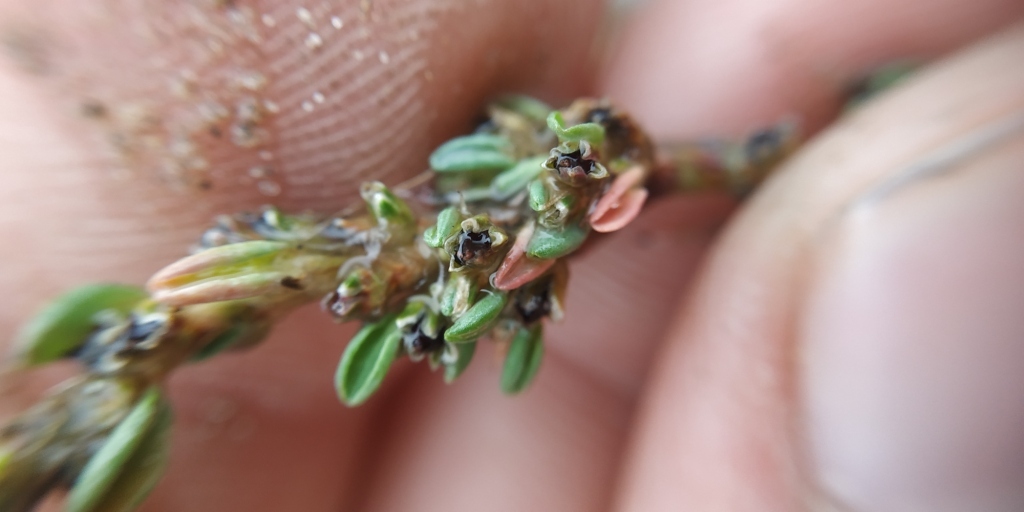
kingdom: Plantae
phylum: Tracheophyta
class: Magnoliopsida
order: Caryophyllales
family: Polygonaceae
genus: Polygonum
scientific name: Polygonum
